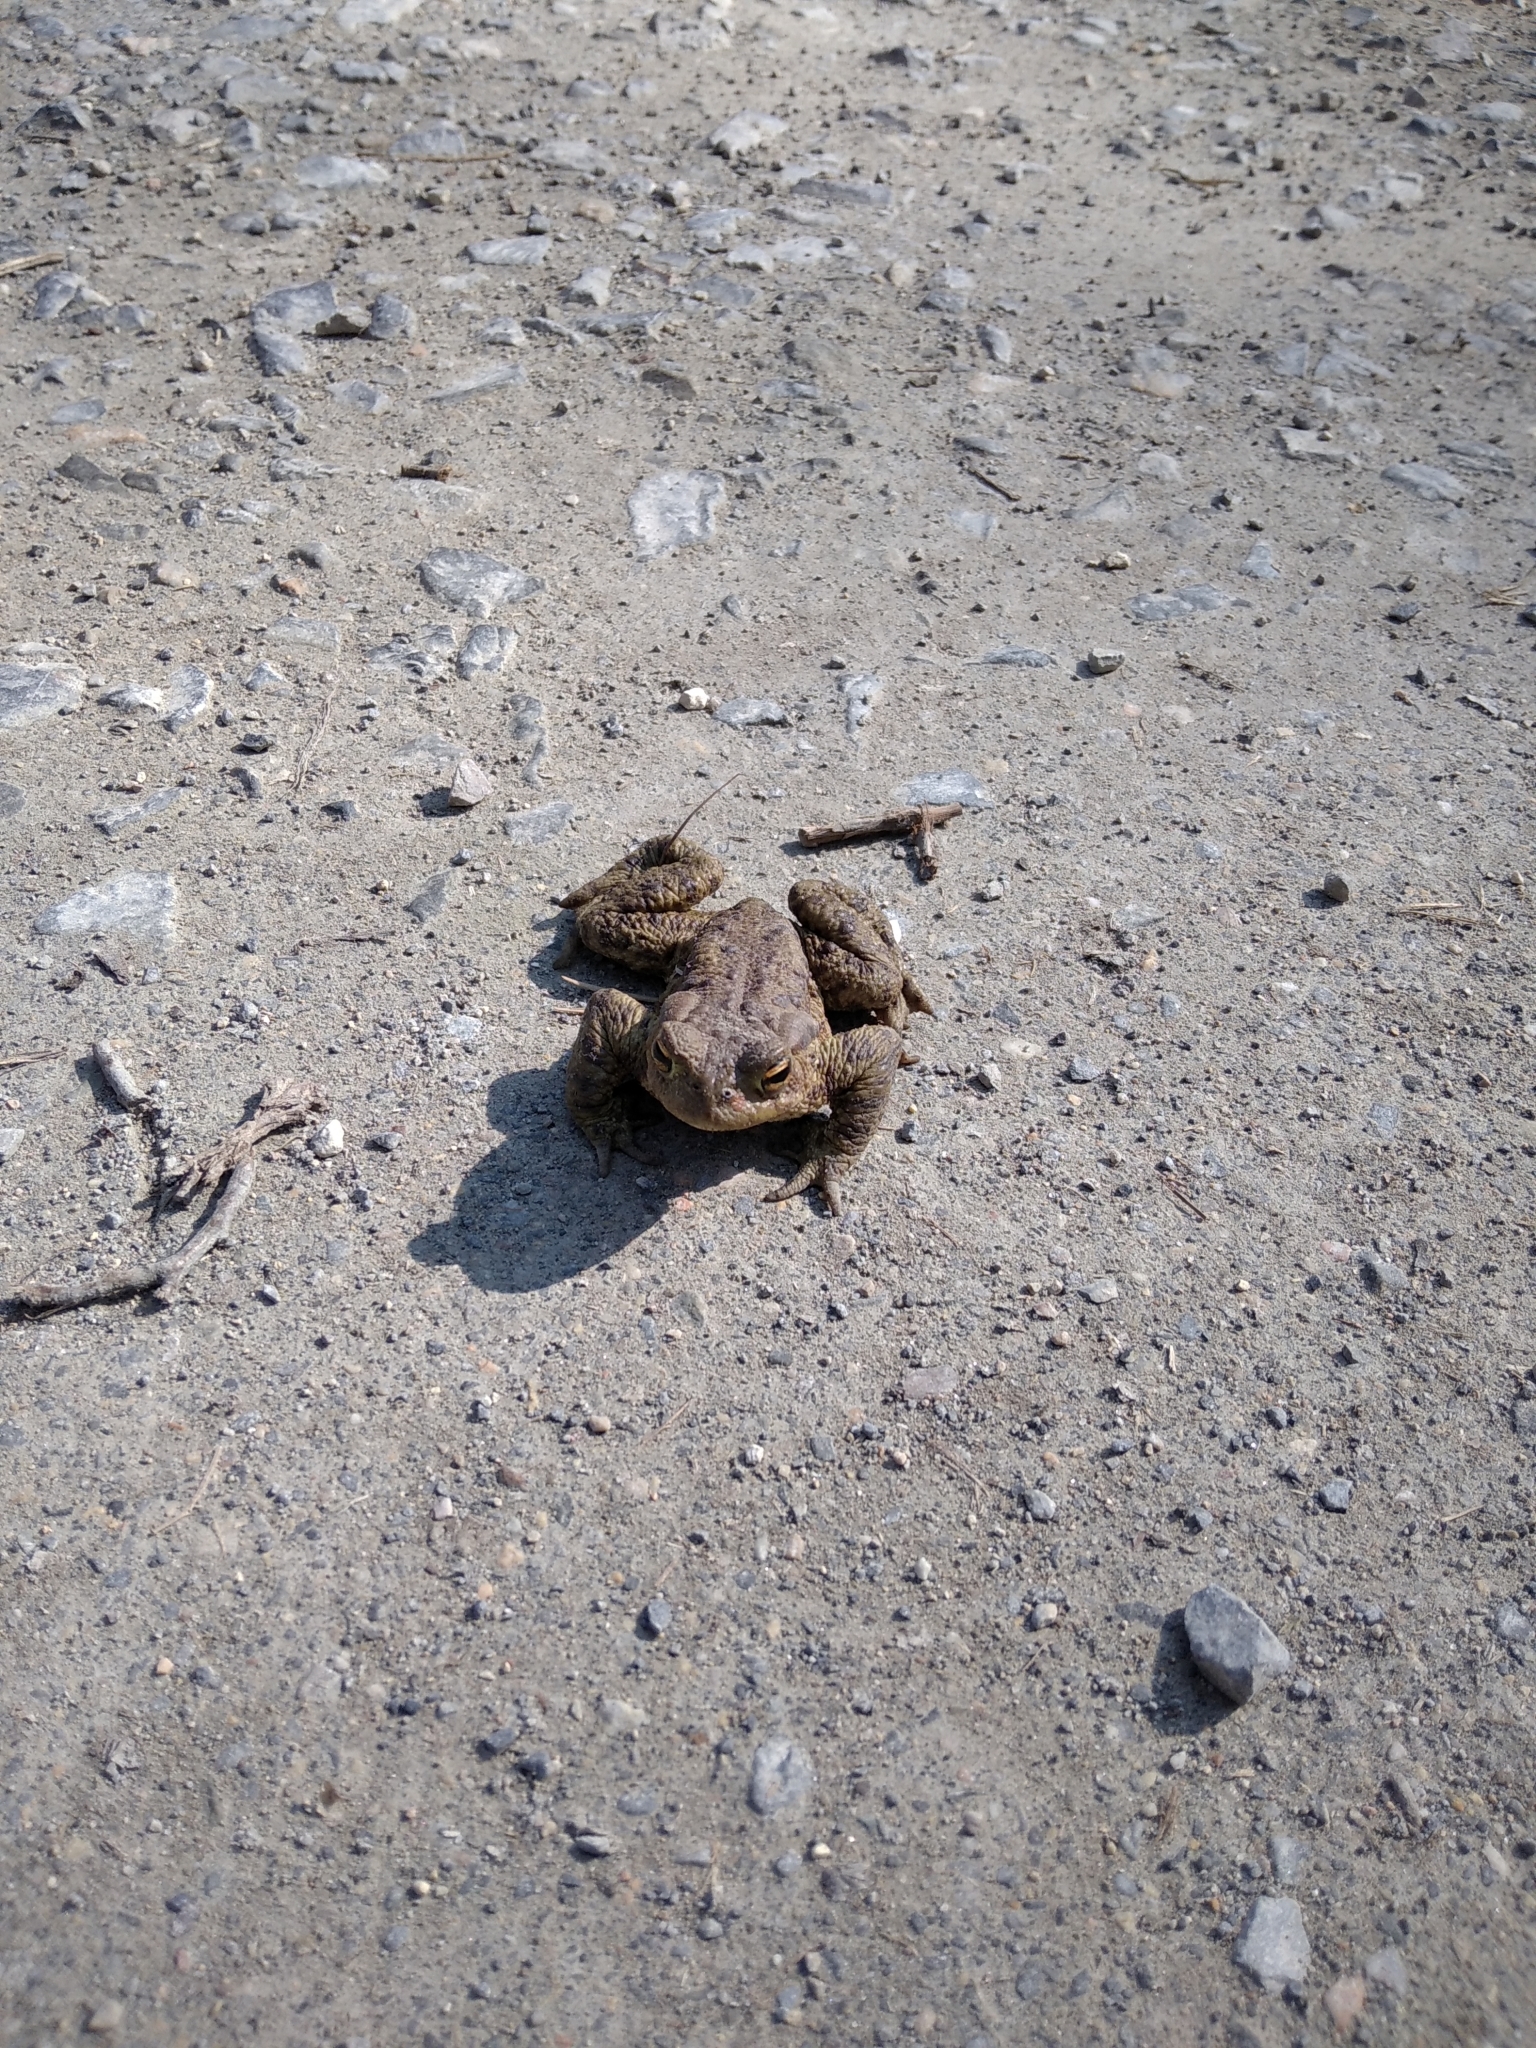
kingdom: Animalia
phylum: Chordata
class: Amphibia
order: Anura
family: Bufonidae
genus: Bufo
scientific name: Bufo bufo
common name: Common toad
